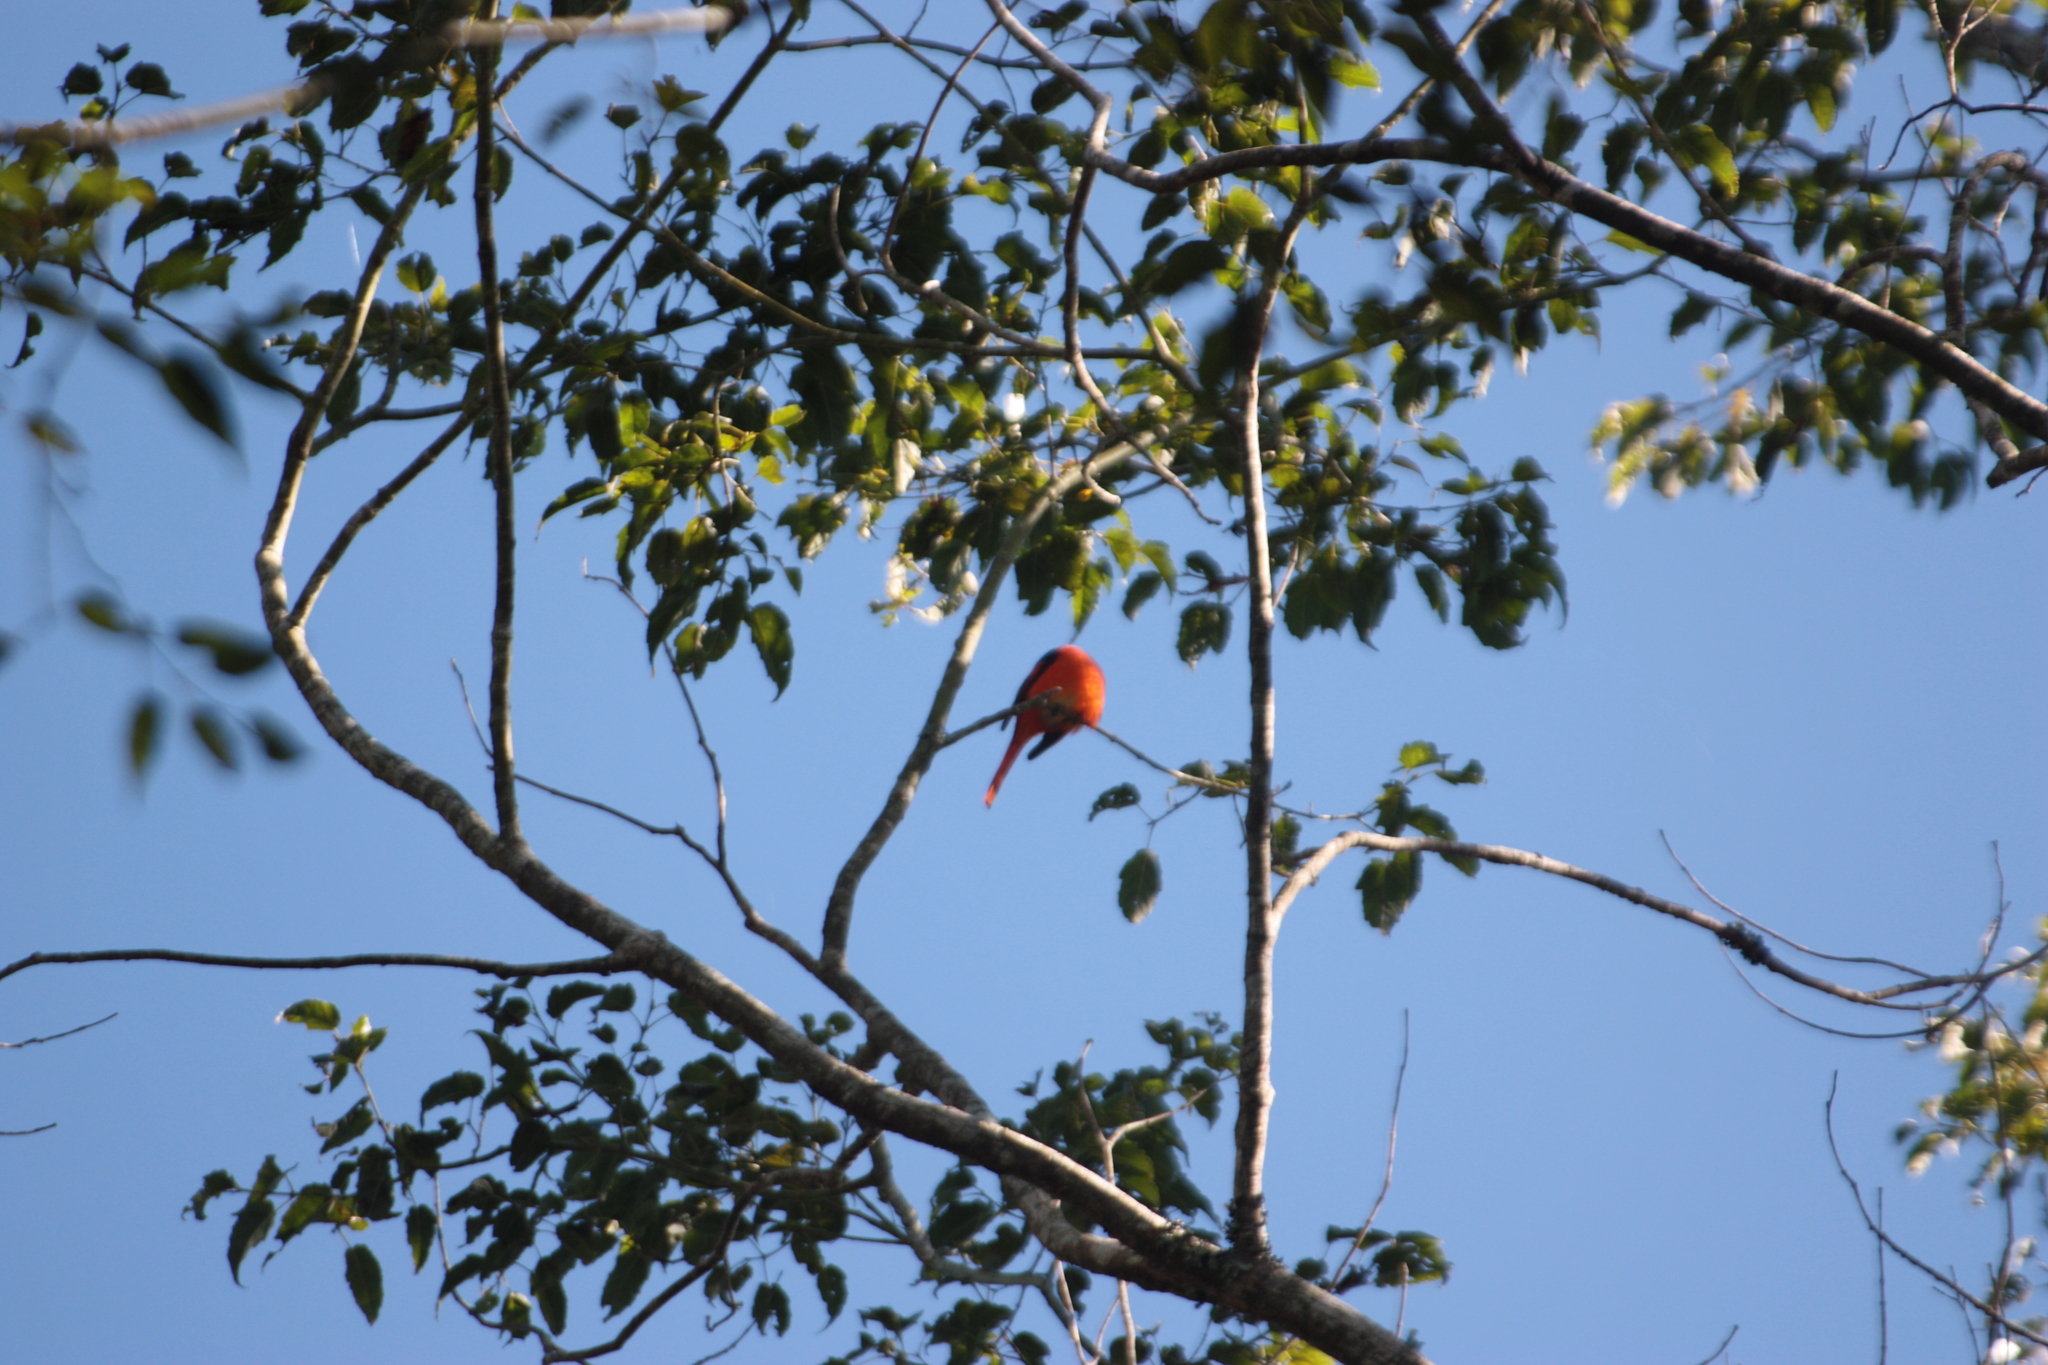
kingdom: Animalia
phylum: Chordata
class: Aves
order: Passeriformes
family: Campephagidae
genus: Pericrocotus
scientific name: Pericrocotus solaris
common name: Grey-chinned minivet
